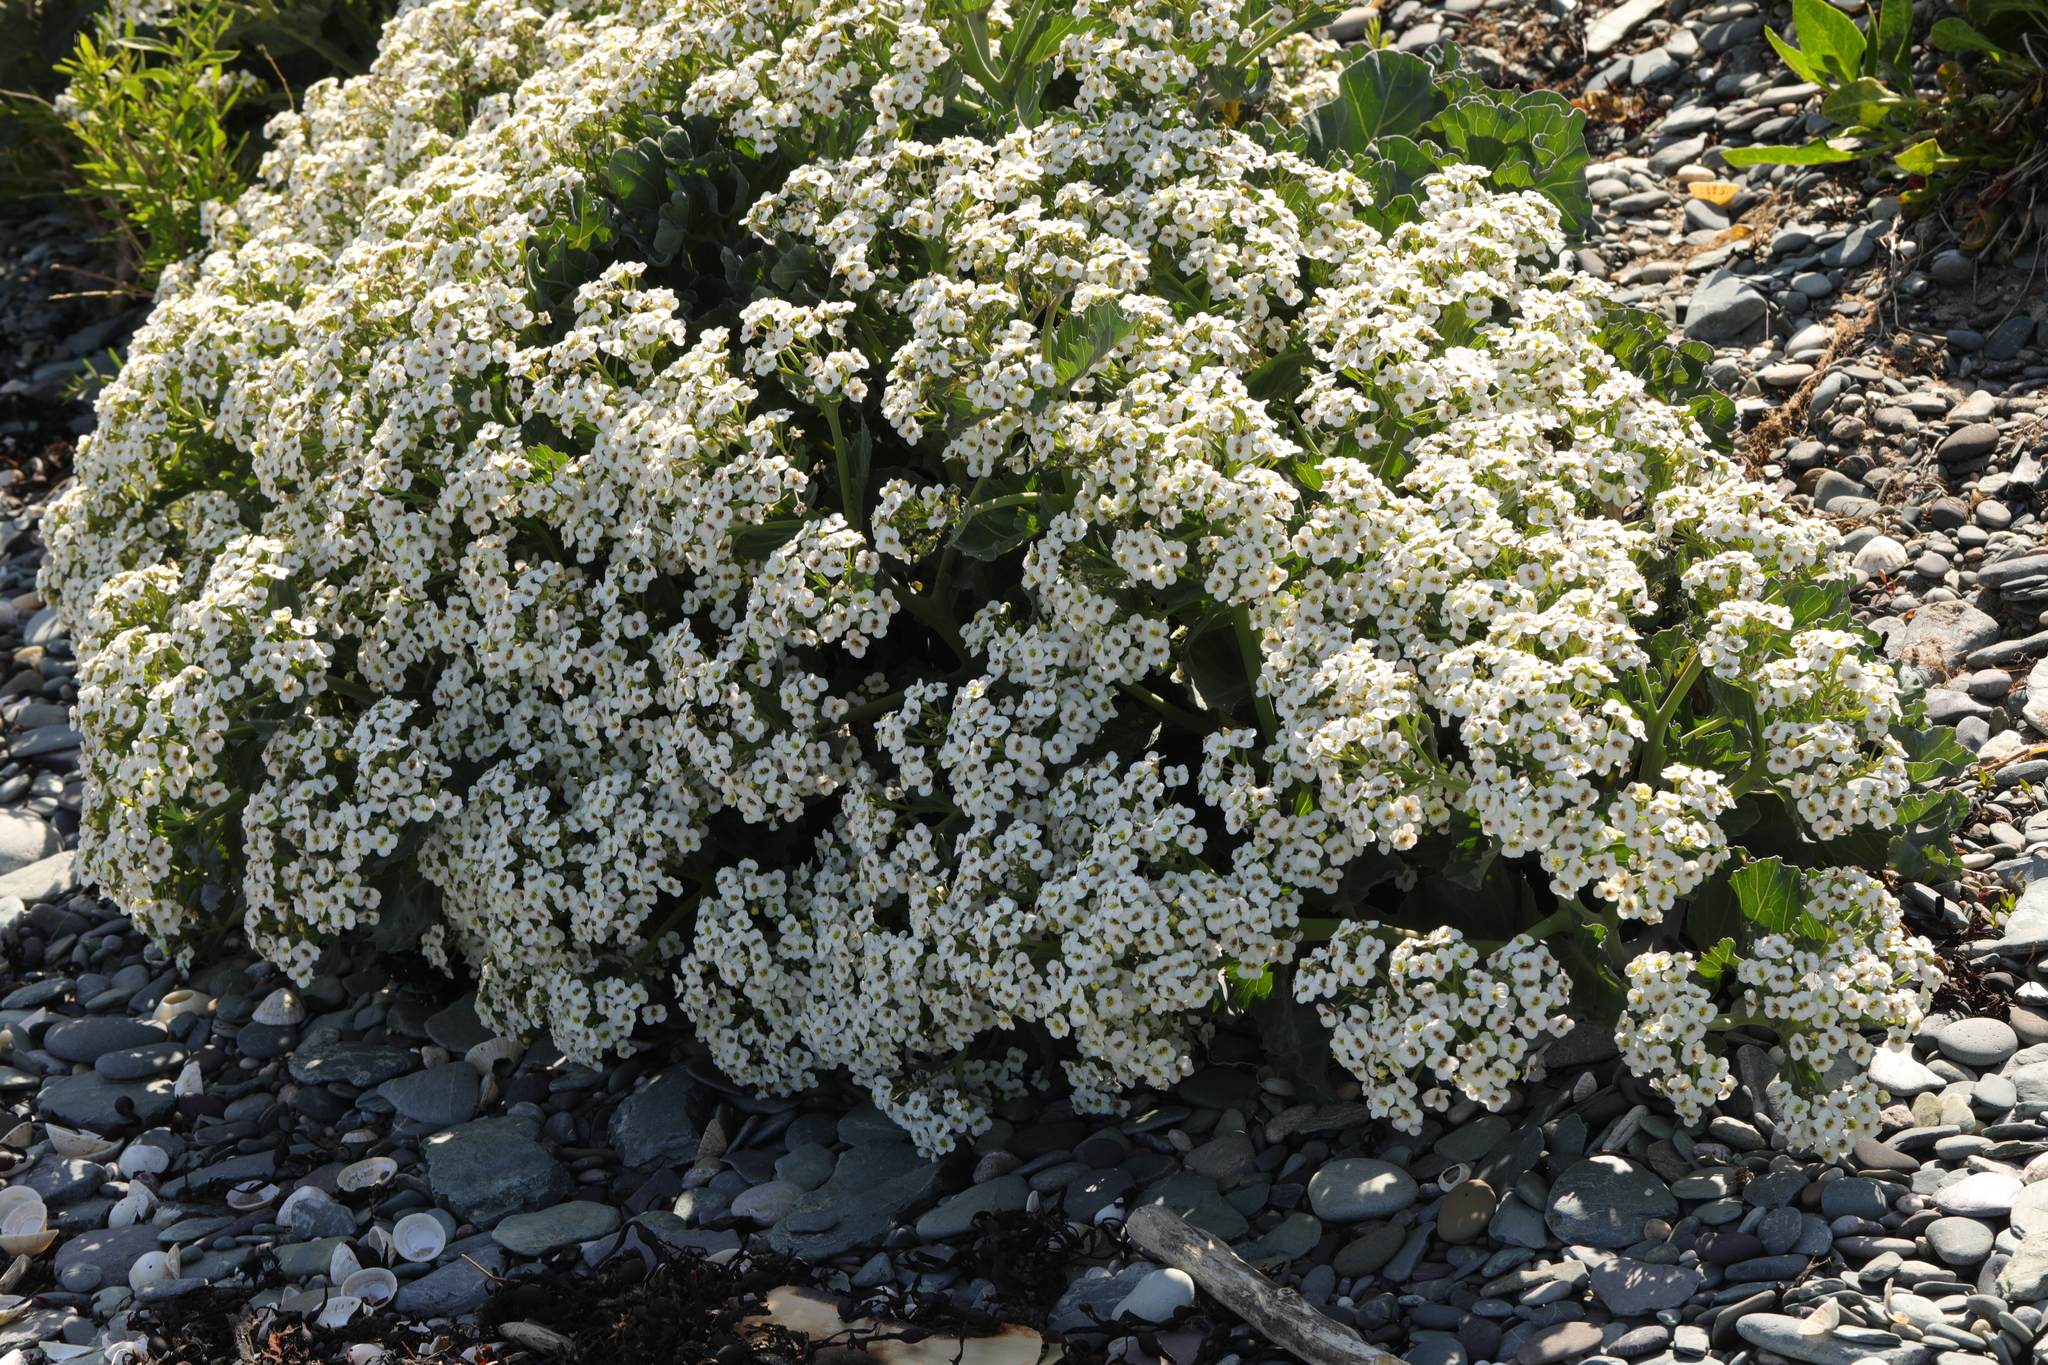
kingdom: Plantae
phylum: Tracheophyta
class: Magnoliopsida
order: Brassicales
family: Brassicaceae
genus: Crambe
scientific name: Crambe maritima
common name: Sea-kale
